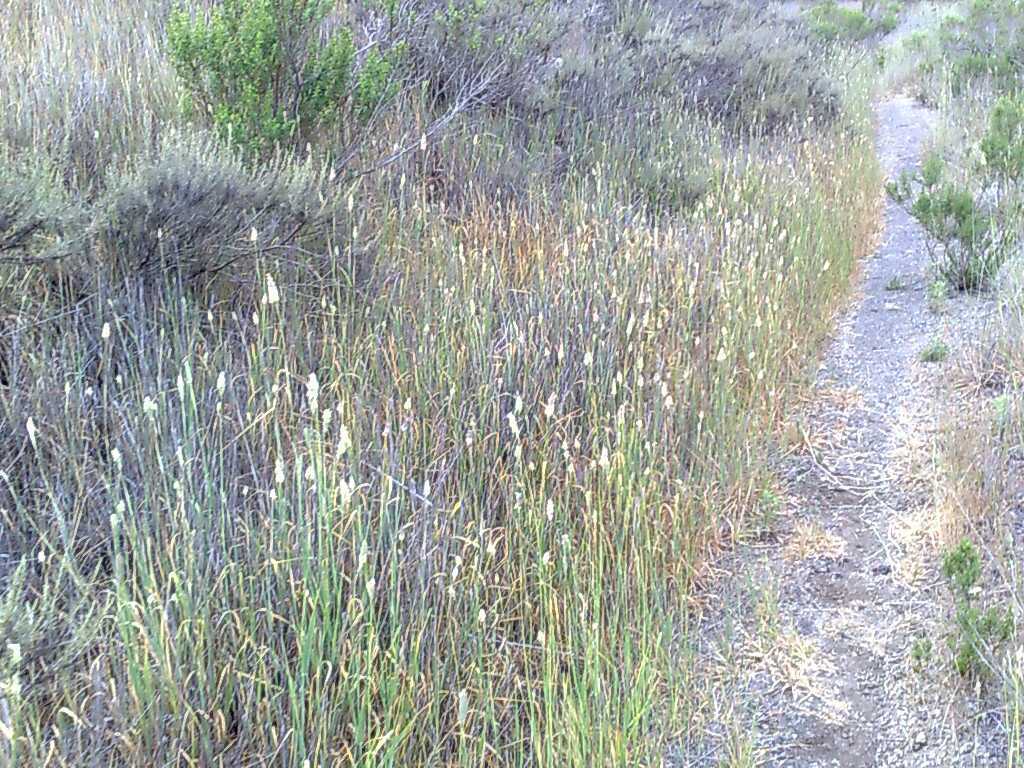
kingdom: Plantae
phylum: Tracheophyta
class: Liliopsida
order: Poales
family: Poaceae
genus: Phalaris
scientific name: Phalaris aquatica
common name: Bulbous canary-grass
